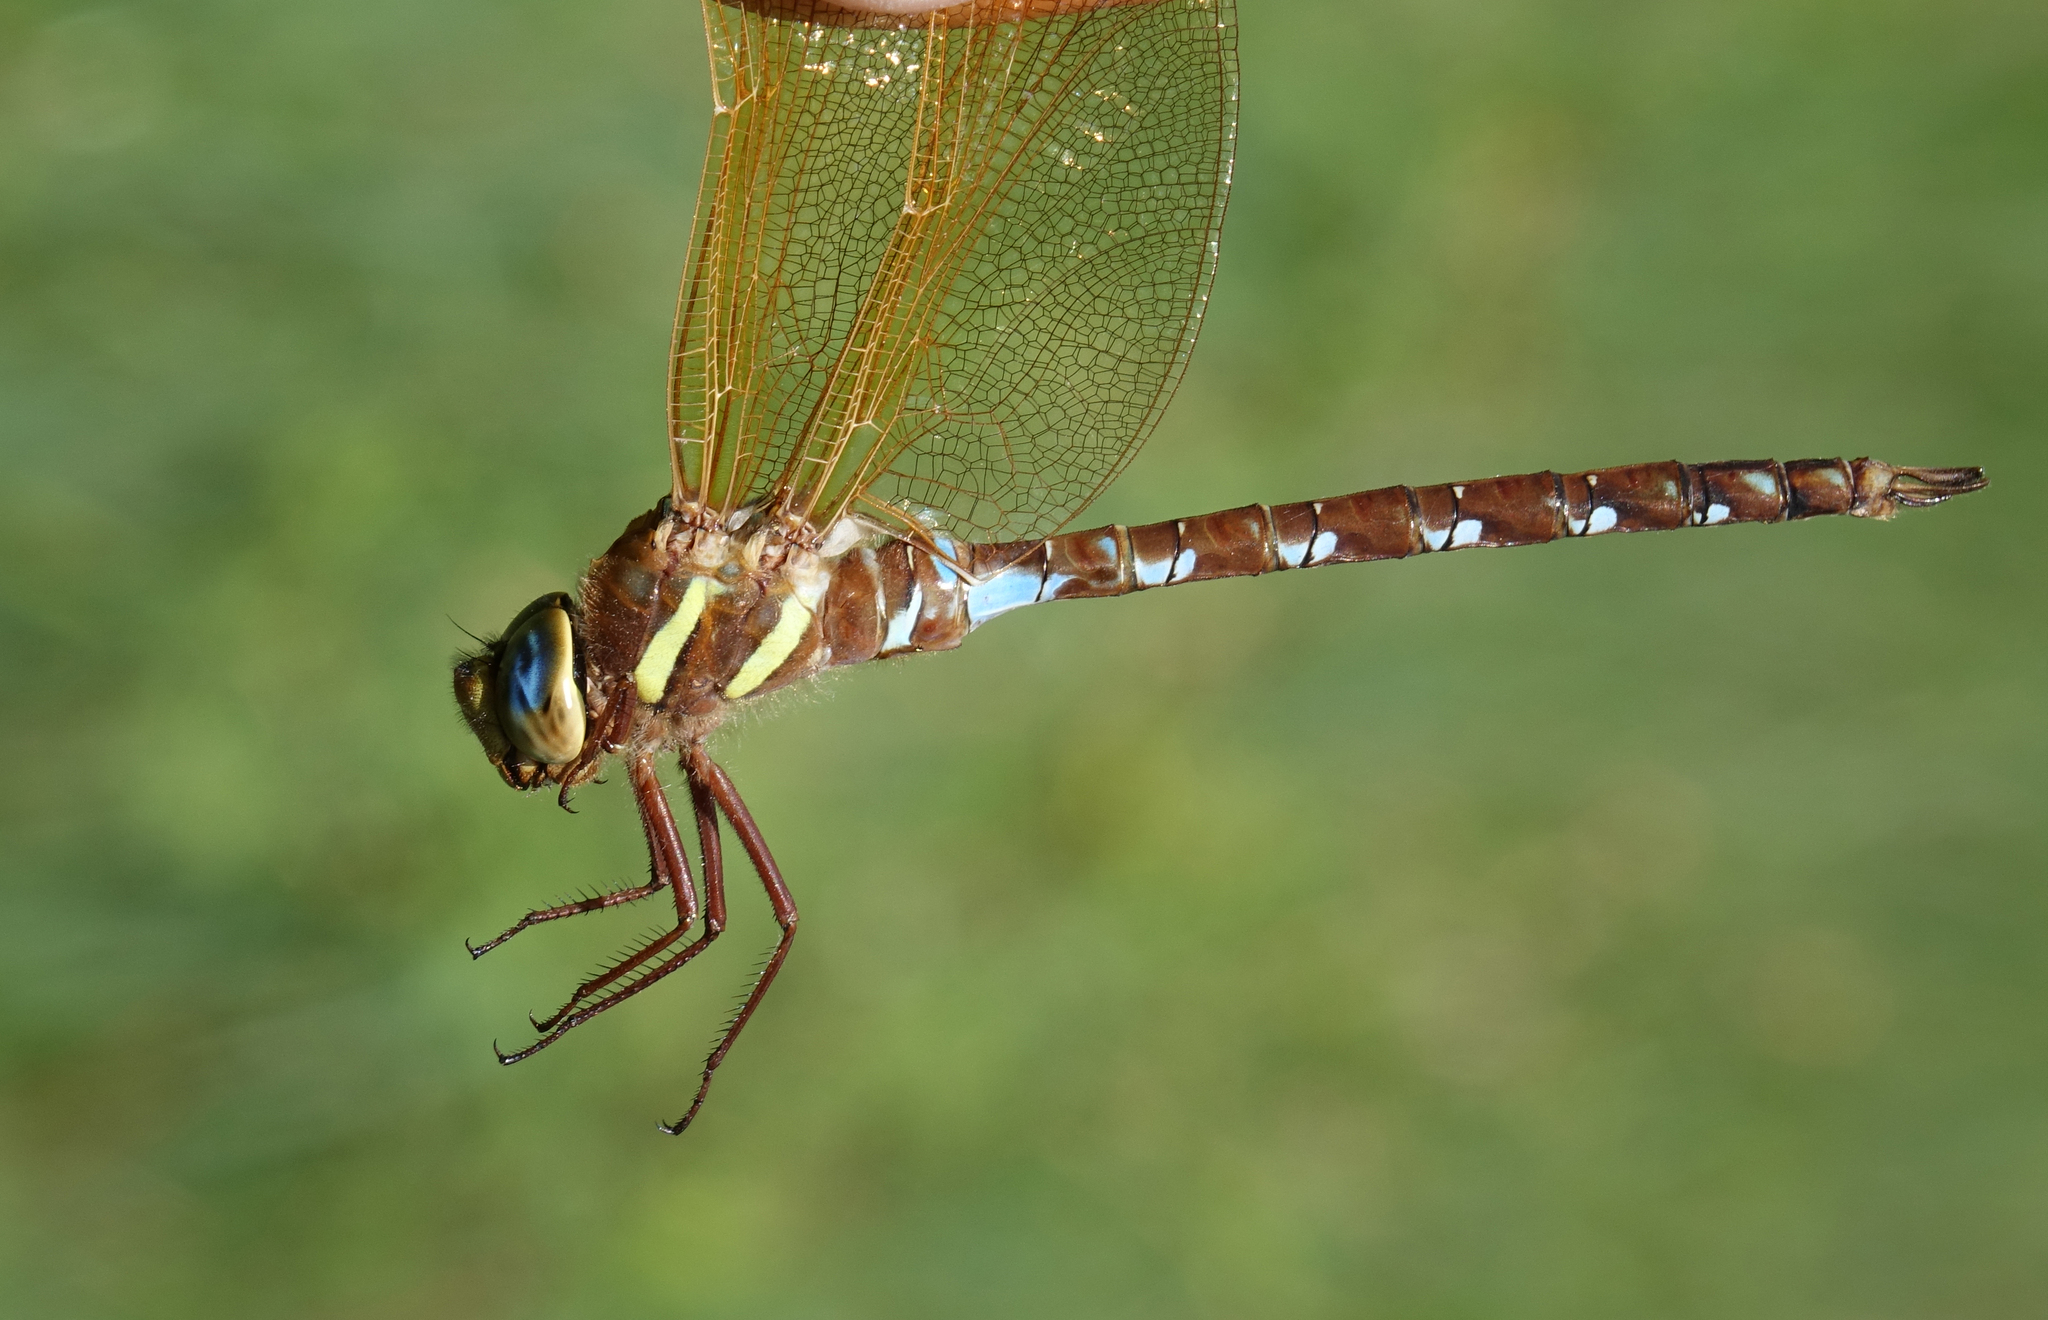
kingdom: Animalia
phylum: Arthropoda
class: Insecta
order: Odonata
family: Aeshnidae
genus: Aeshna
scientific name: Aeshna grandis
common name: Brown hawker
